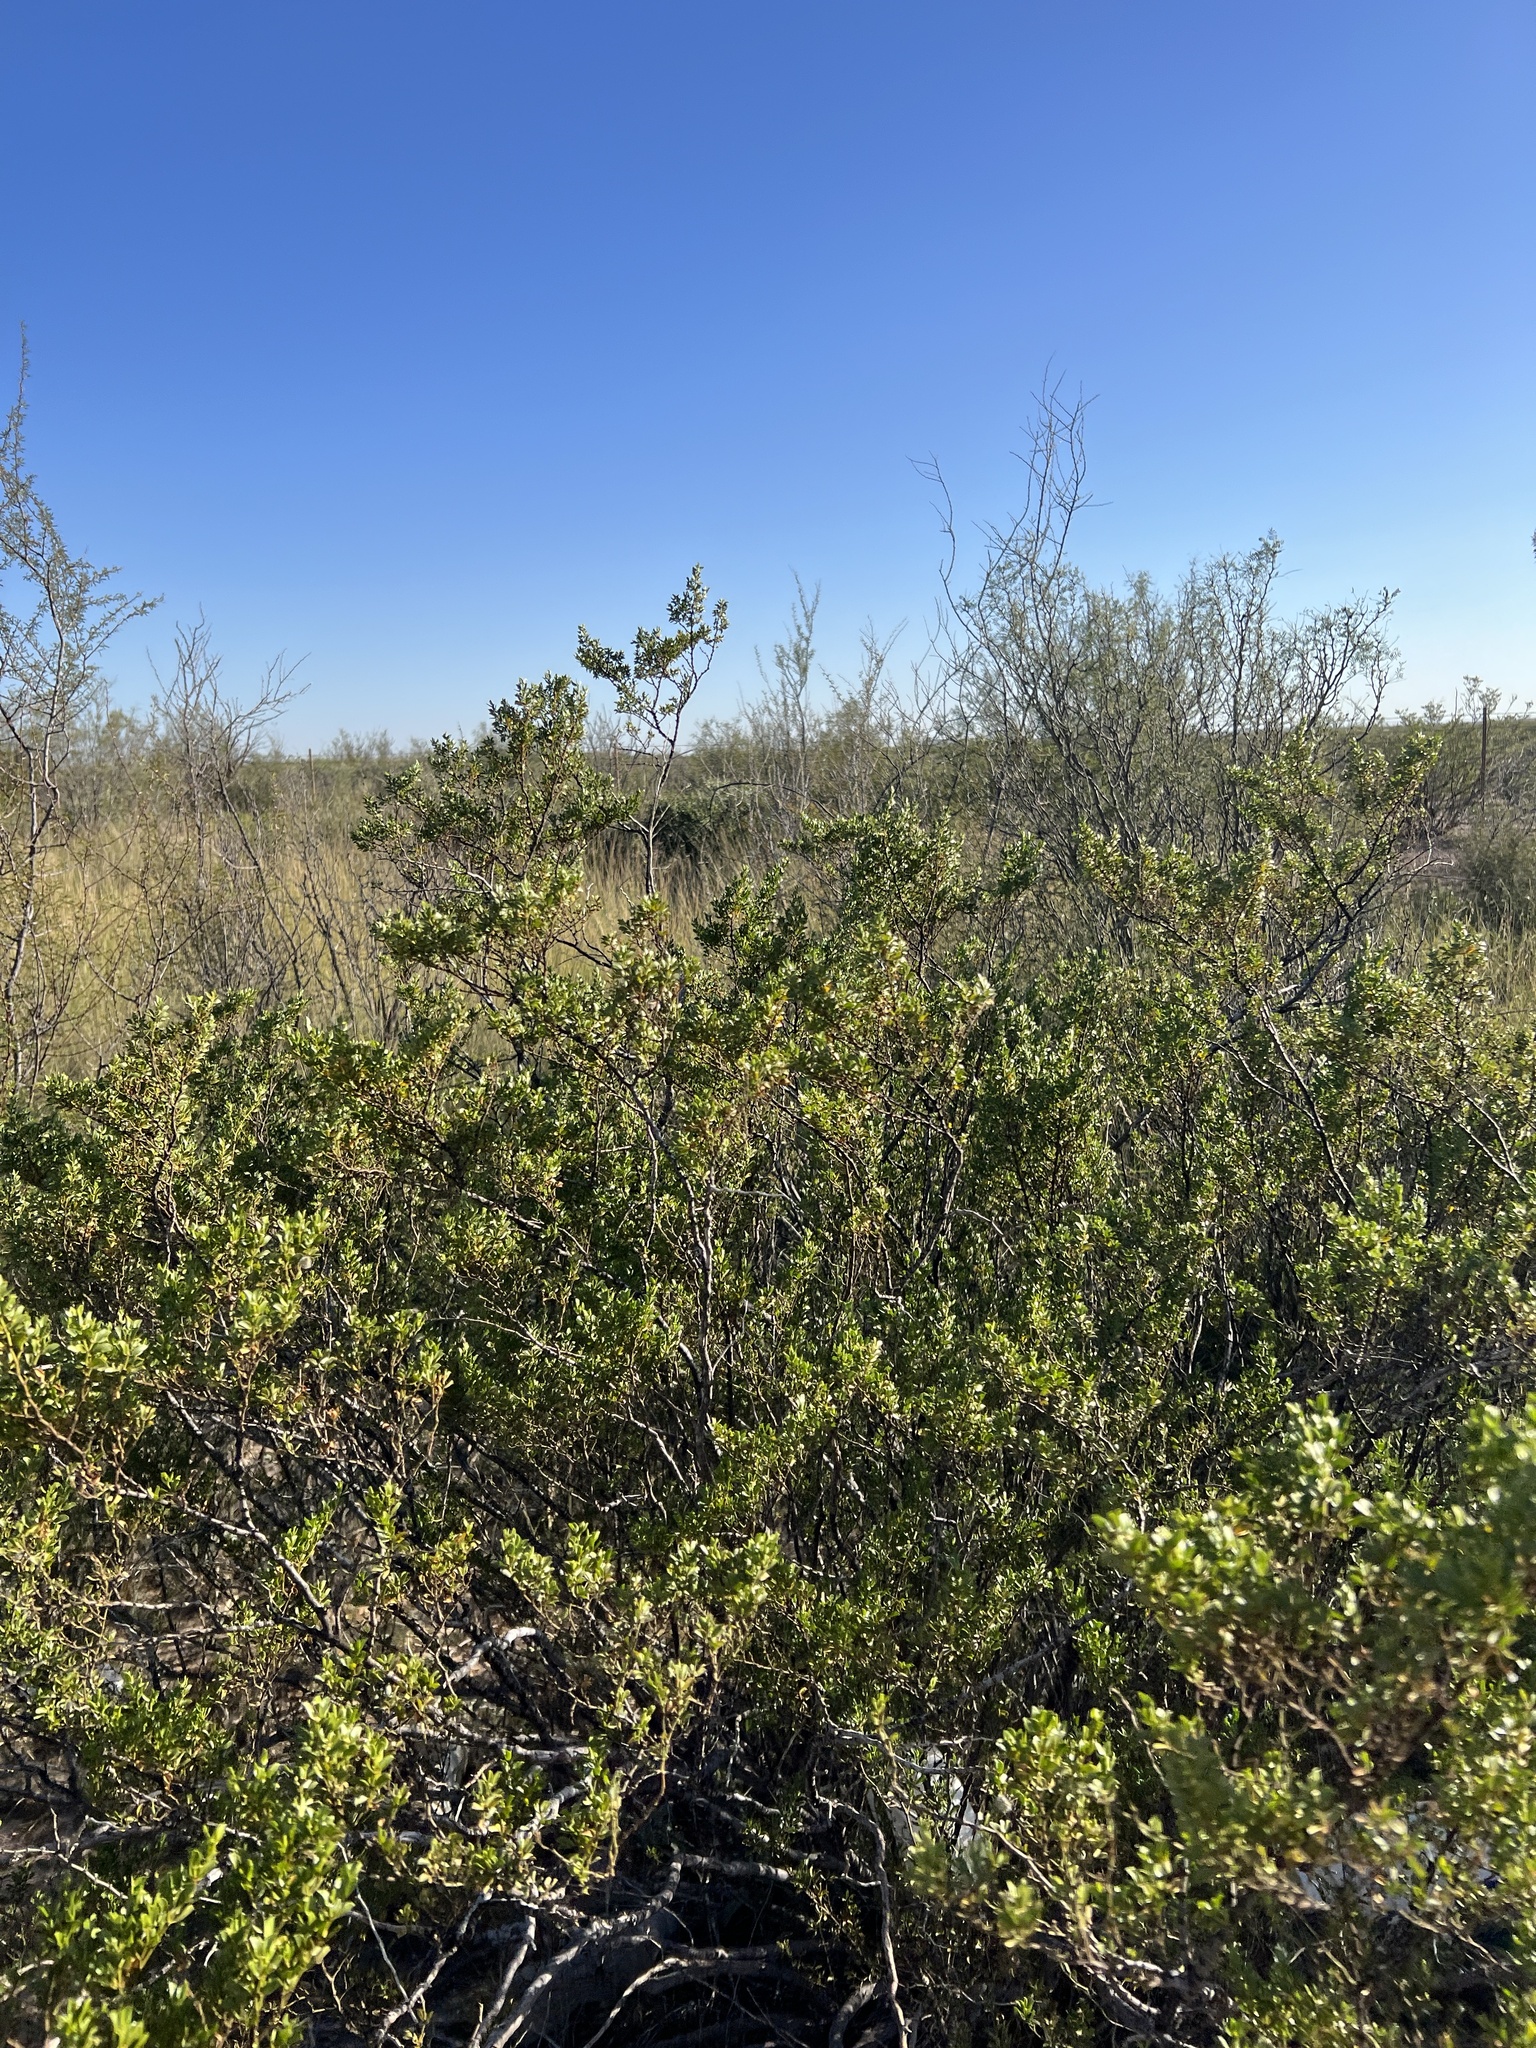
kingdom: Plantae
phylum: Tracheophyta
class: Magnoliopsida
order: Zygophyllales
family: Zygophyllaceae
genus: Larrea
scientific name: Larrea tridentata
